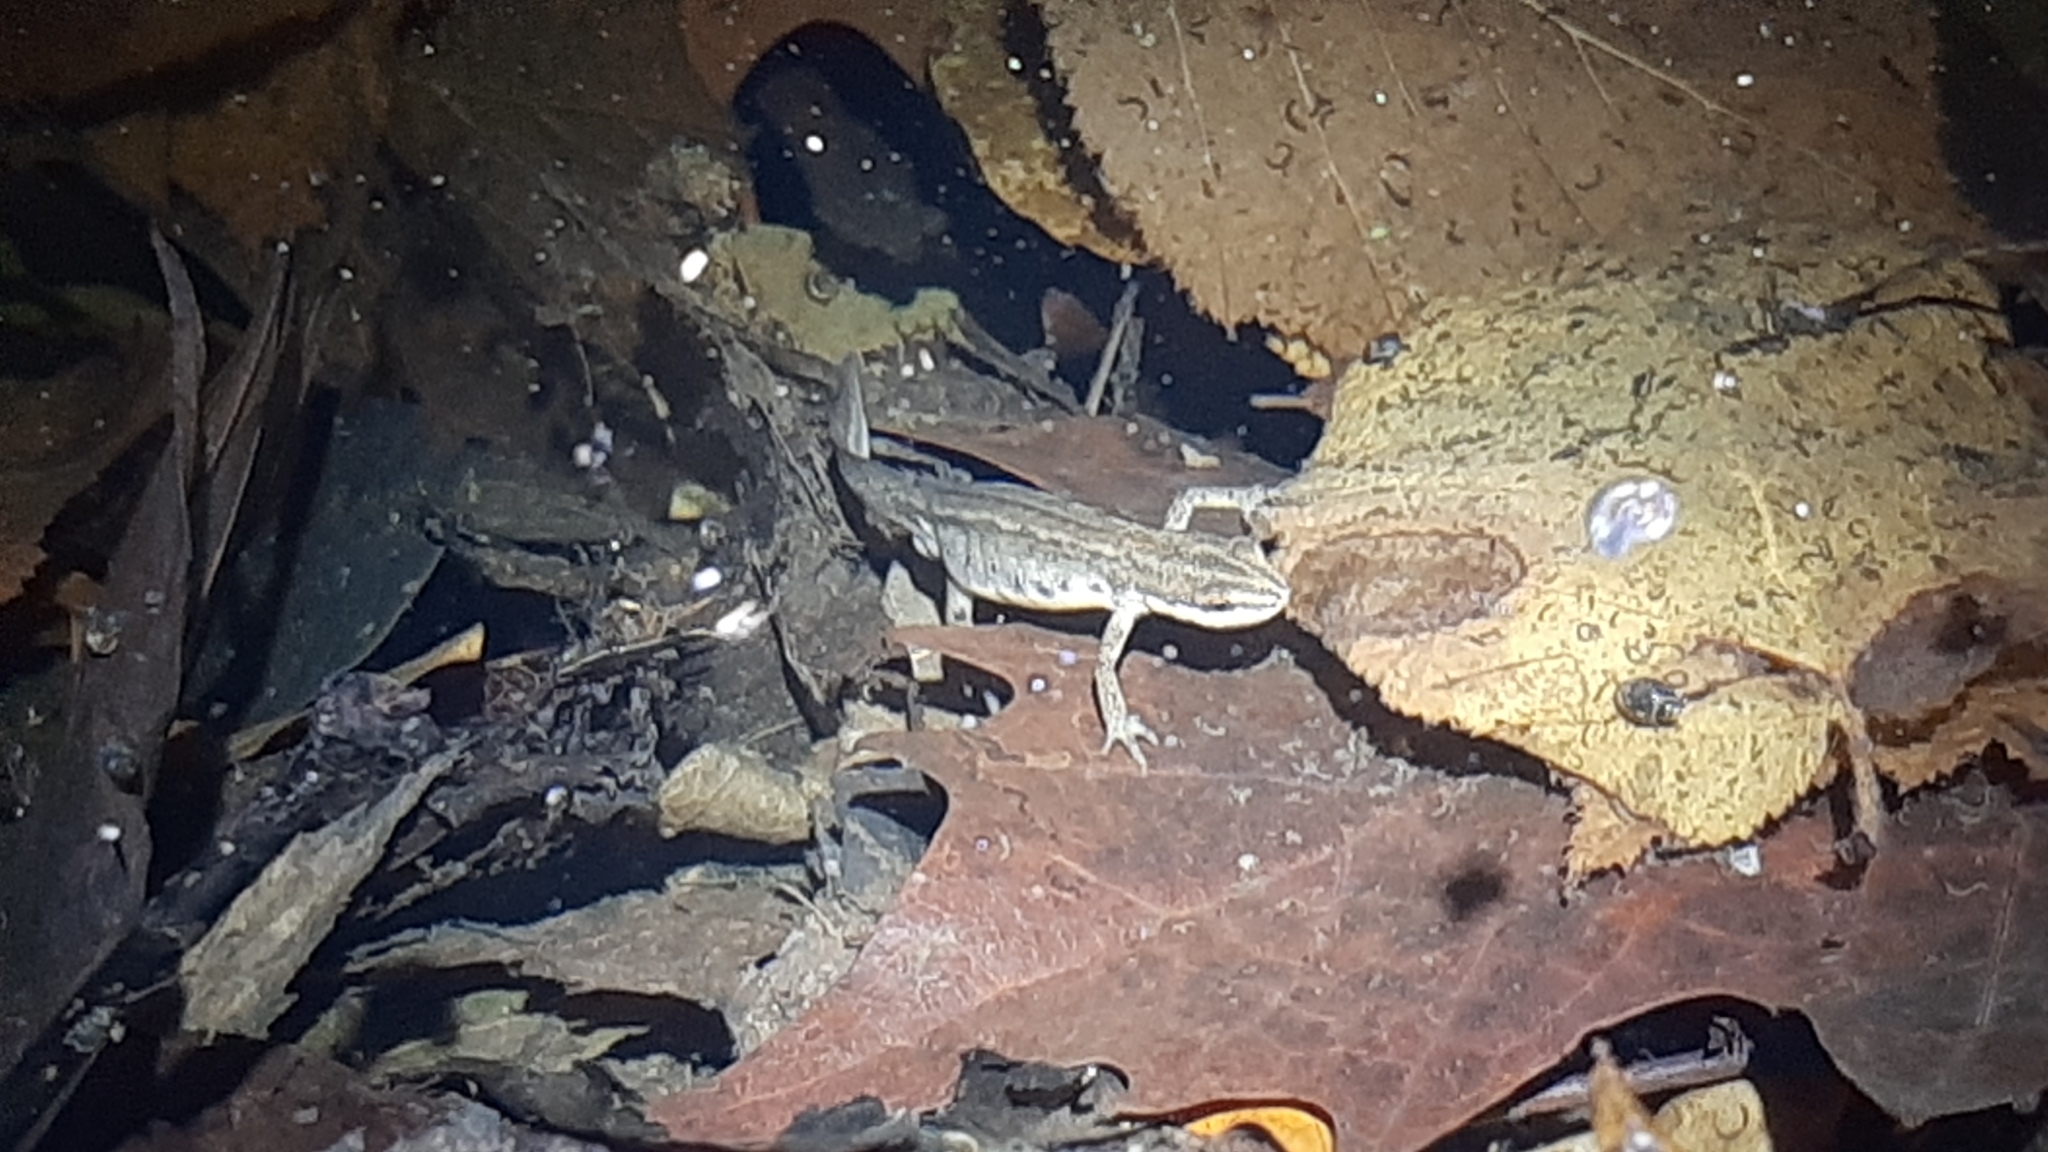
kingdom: Animalia
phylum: Chordata
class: Amphibia
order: Caudata
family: Salamandridae
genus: Lissotriton
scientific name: Lissotriton vulgaris
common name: Smooth newt
